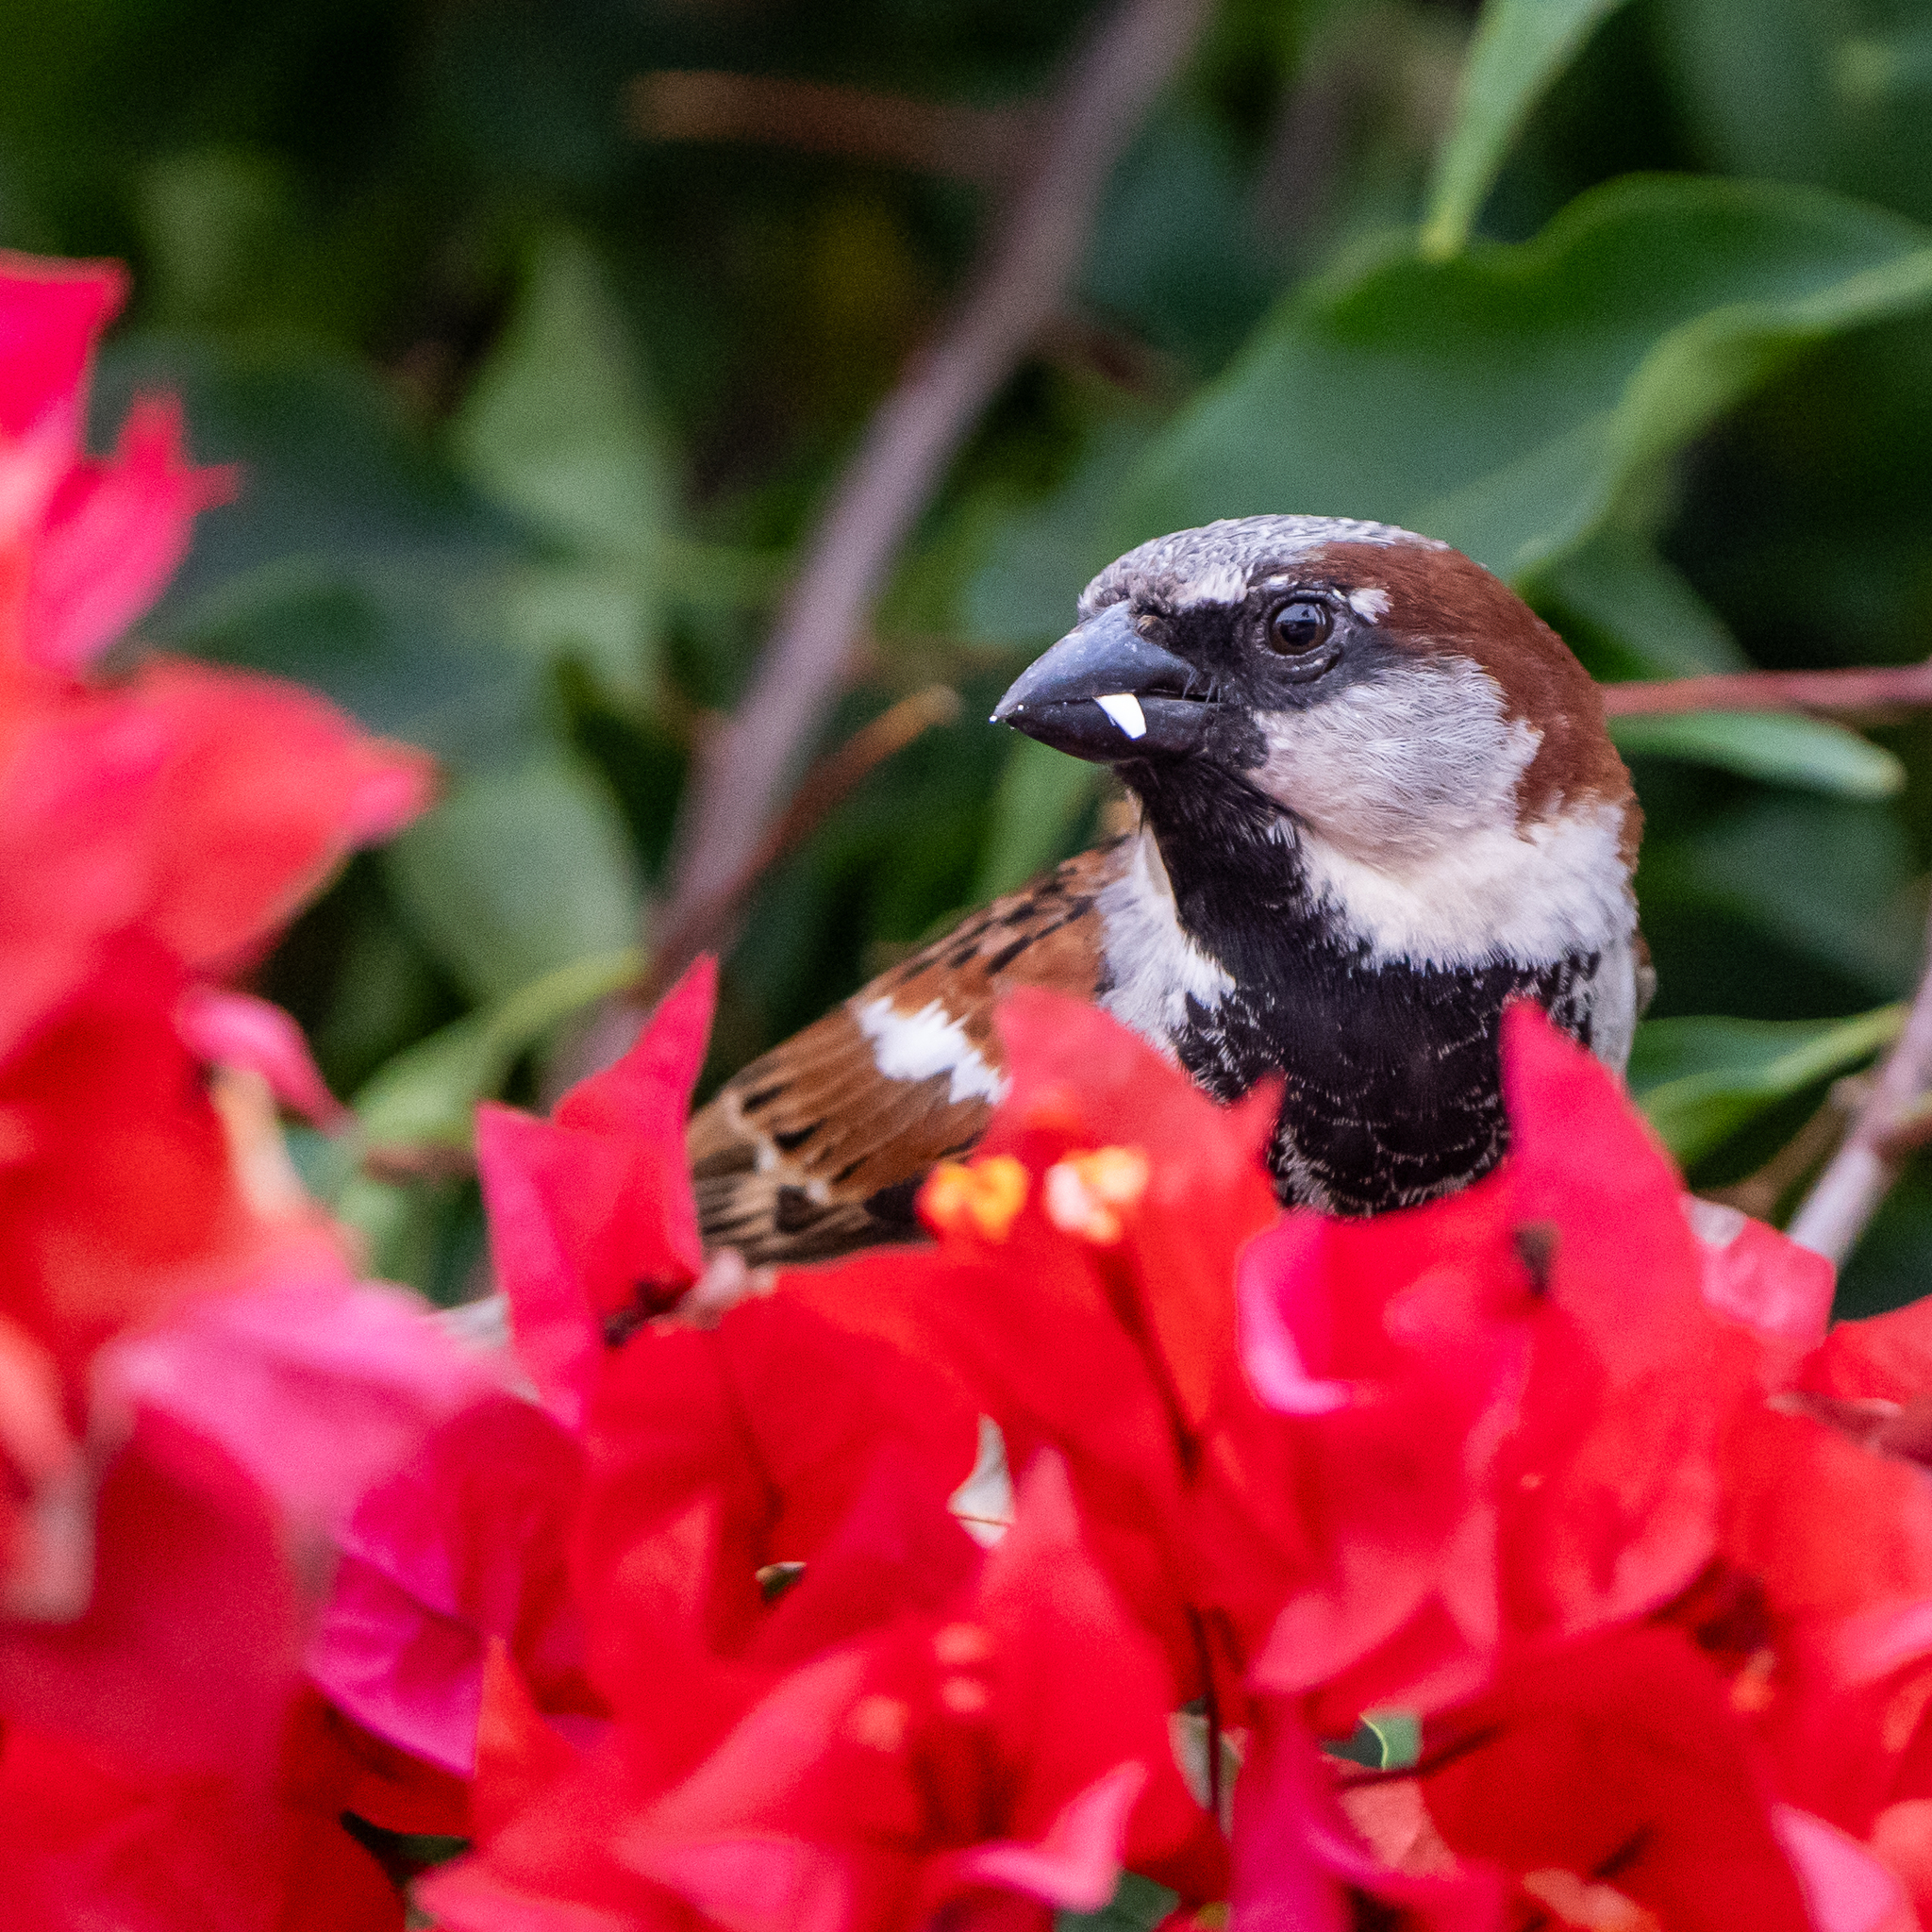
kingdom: Animalia
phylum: Chordata
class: Aves
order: Passeriformes
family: Passeridae
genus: Passer
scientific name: Passer domesticus
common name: House sparrow
